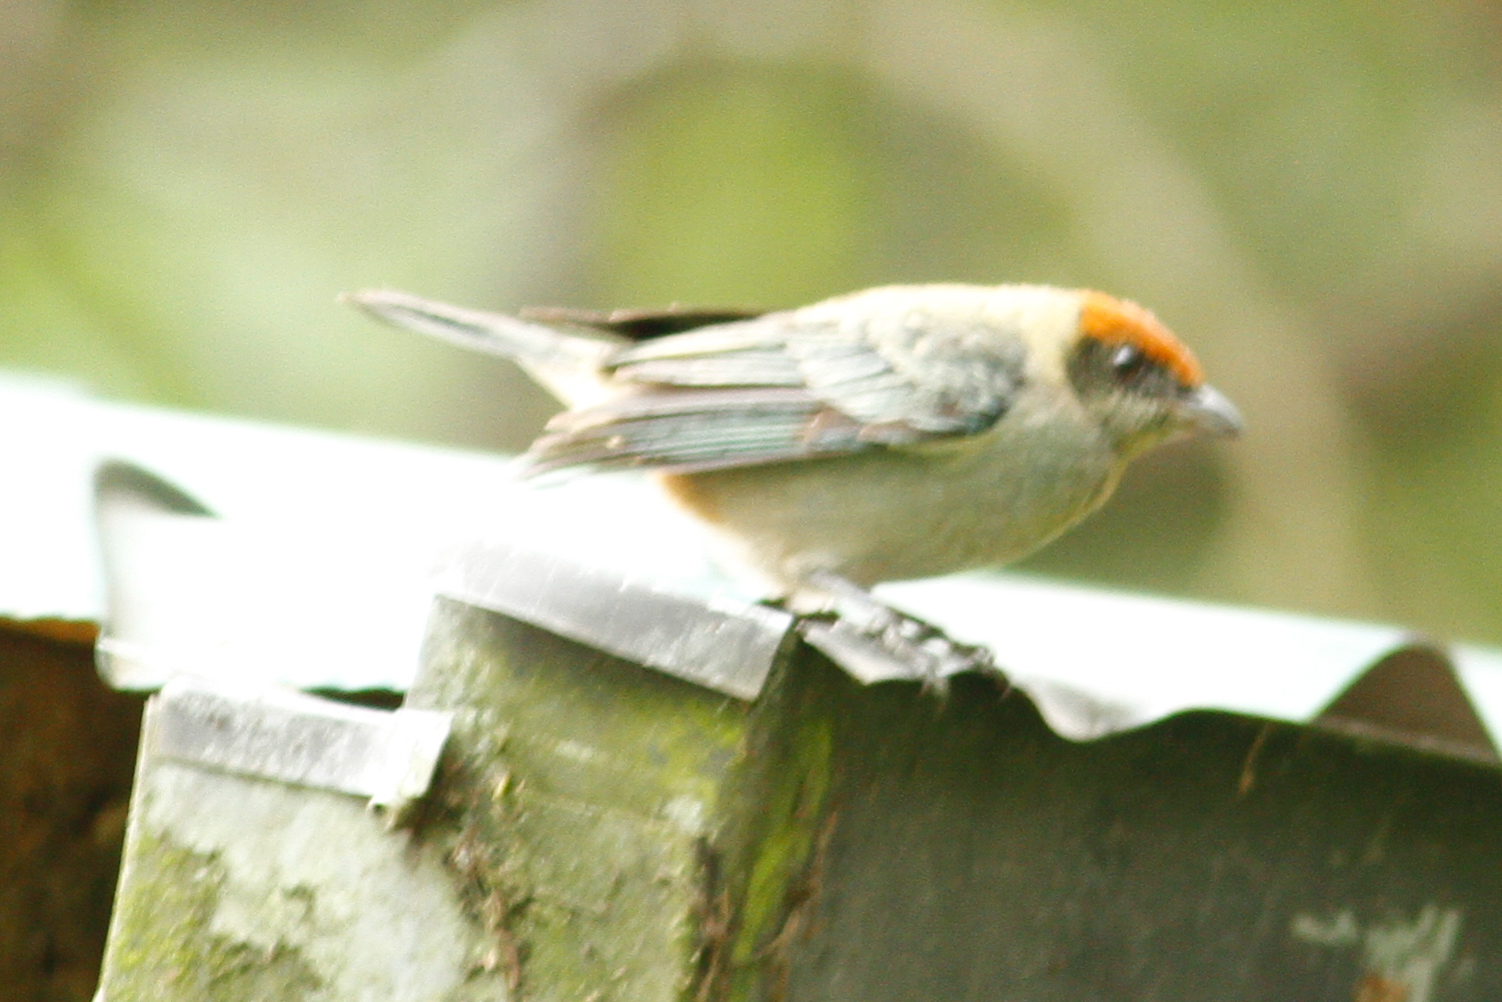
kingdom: Animalia
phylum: Chordata
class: Aves
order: Passeriformes
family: Thraupidae
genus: Stilpnia
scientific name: Stilpnia vitriolina
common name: Scrub tanager
